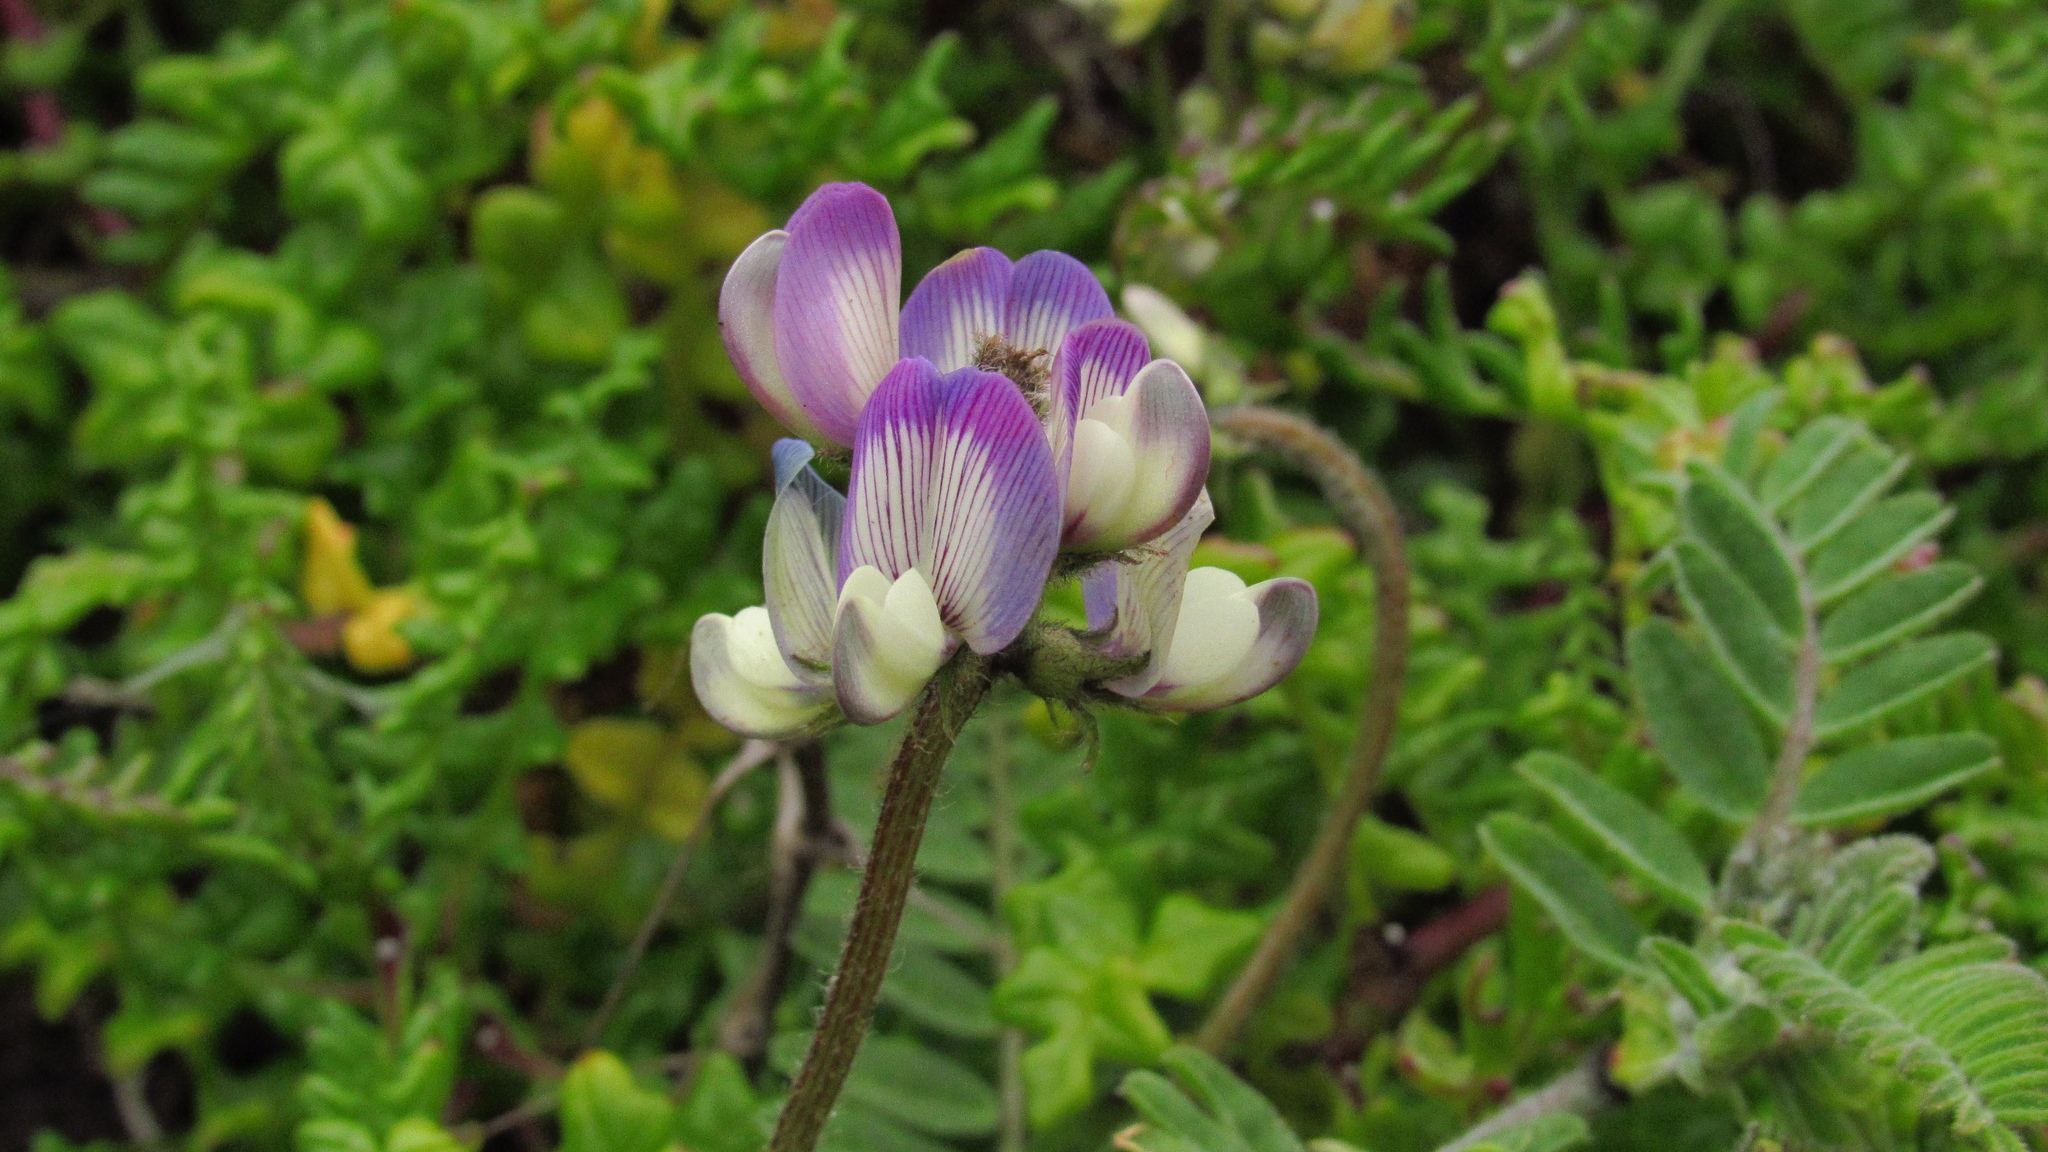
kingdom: Plantae
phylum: Tracheophyta
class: Magnoliopsida
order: Fabales
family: Fabaceae
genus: Astragalus
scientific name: Astragalus amatus
